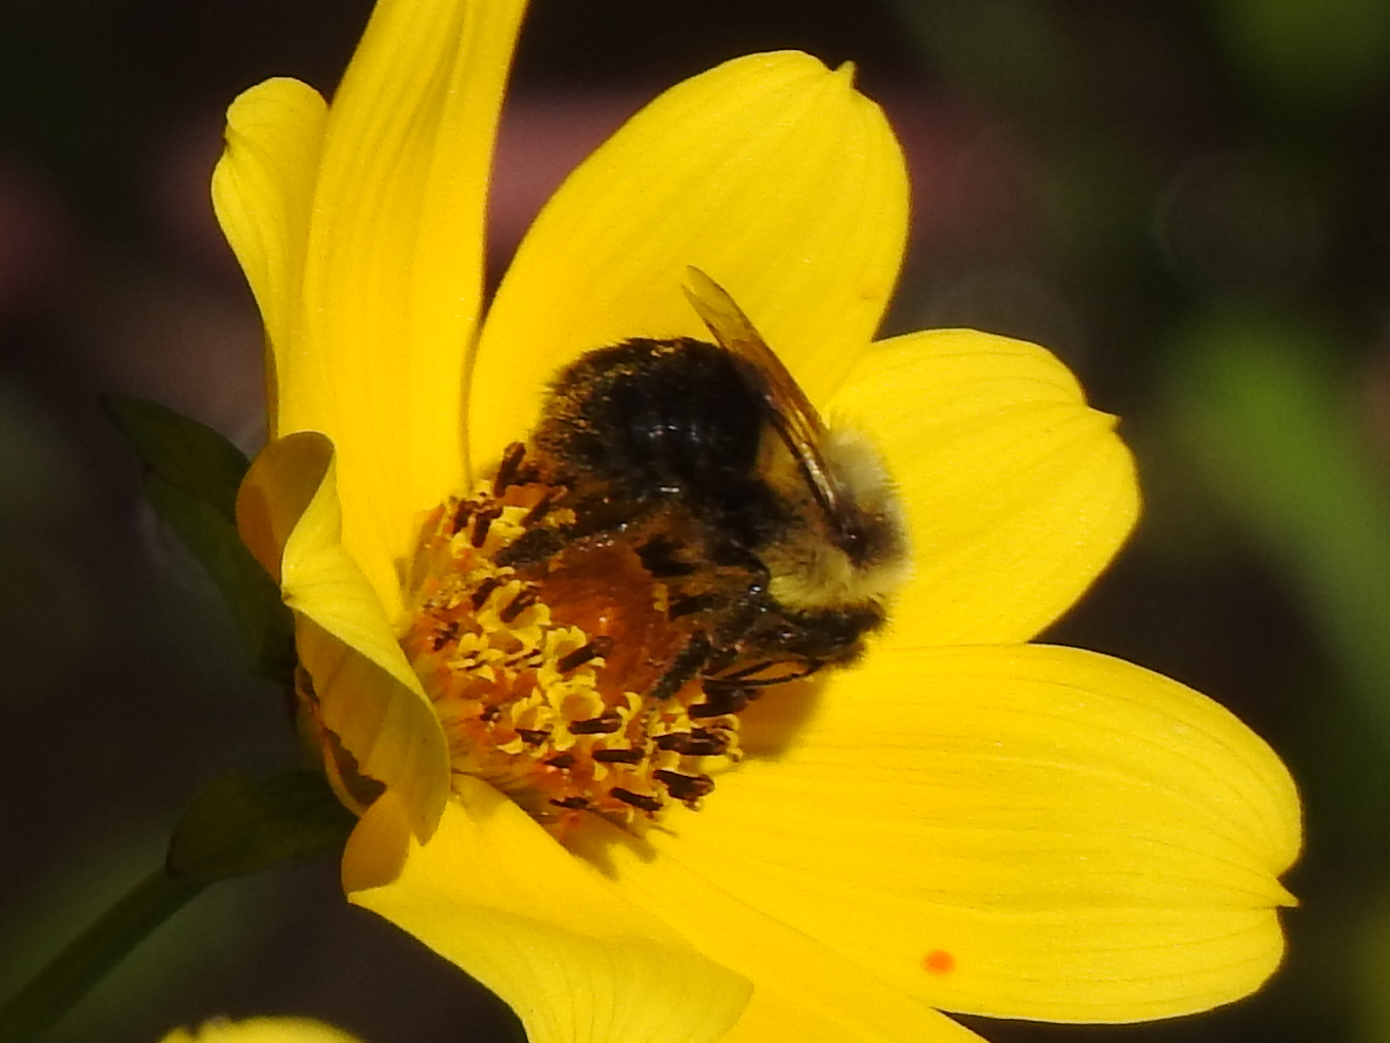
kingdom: Animalia
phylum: Arthropoda
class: Insecta
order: Hymenoptera
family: Apidae
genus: Bombus
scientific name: Bombus impatiens
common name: Common eastern bumble bee
